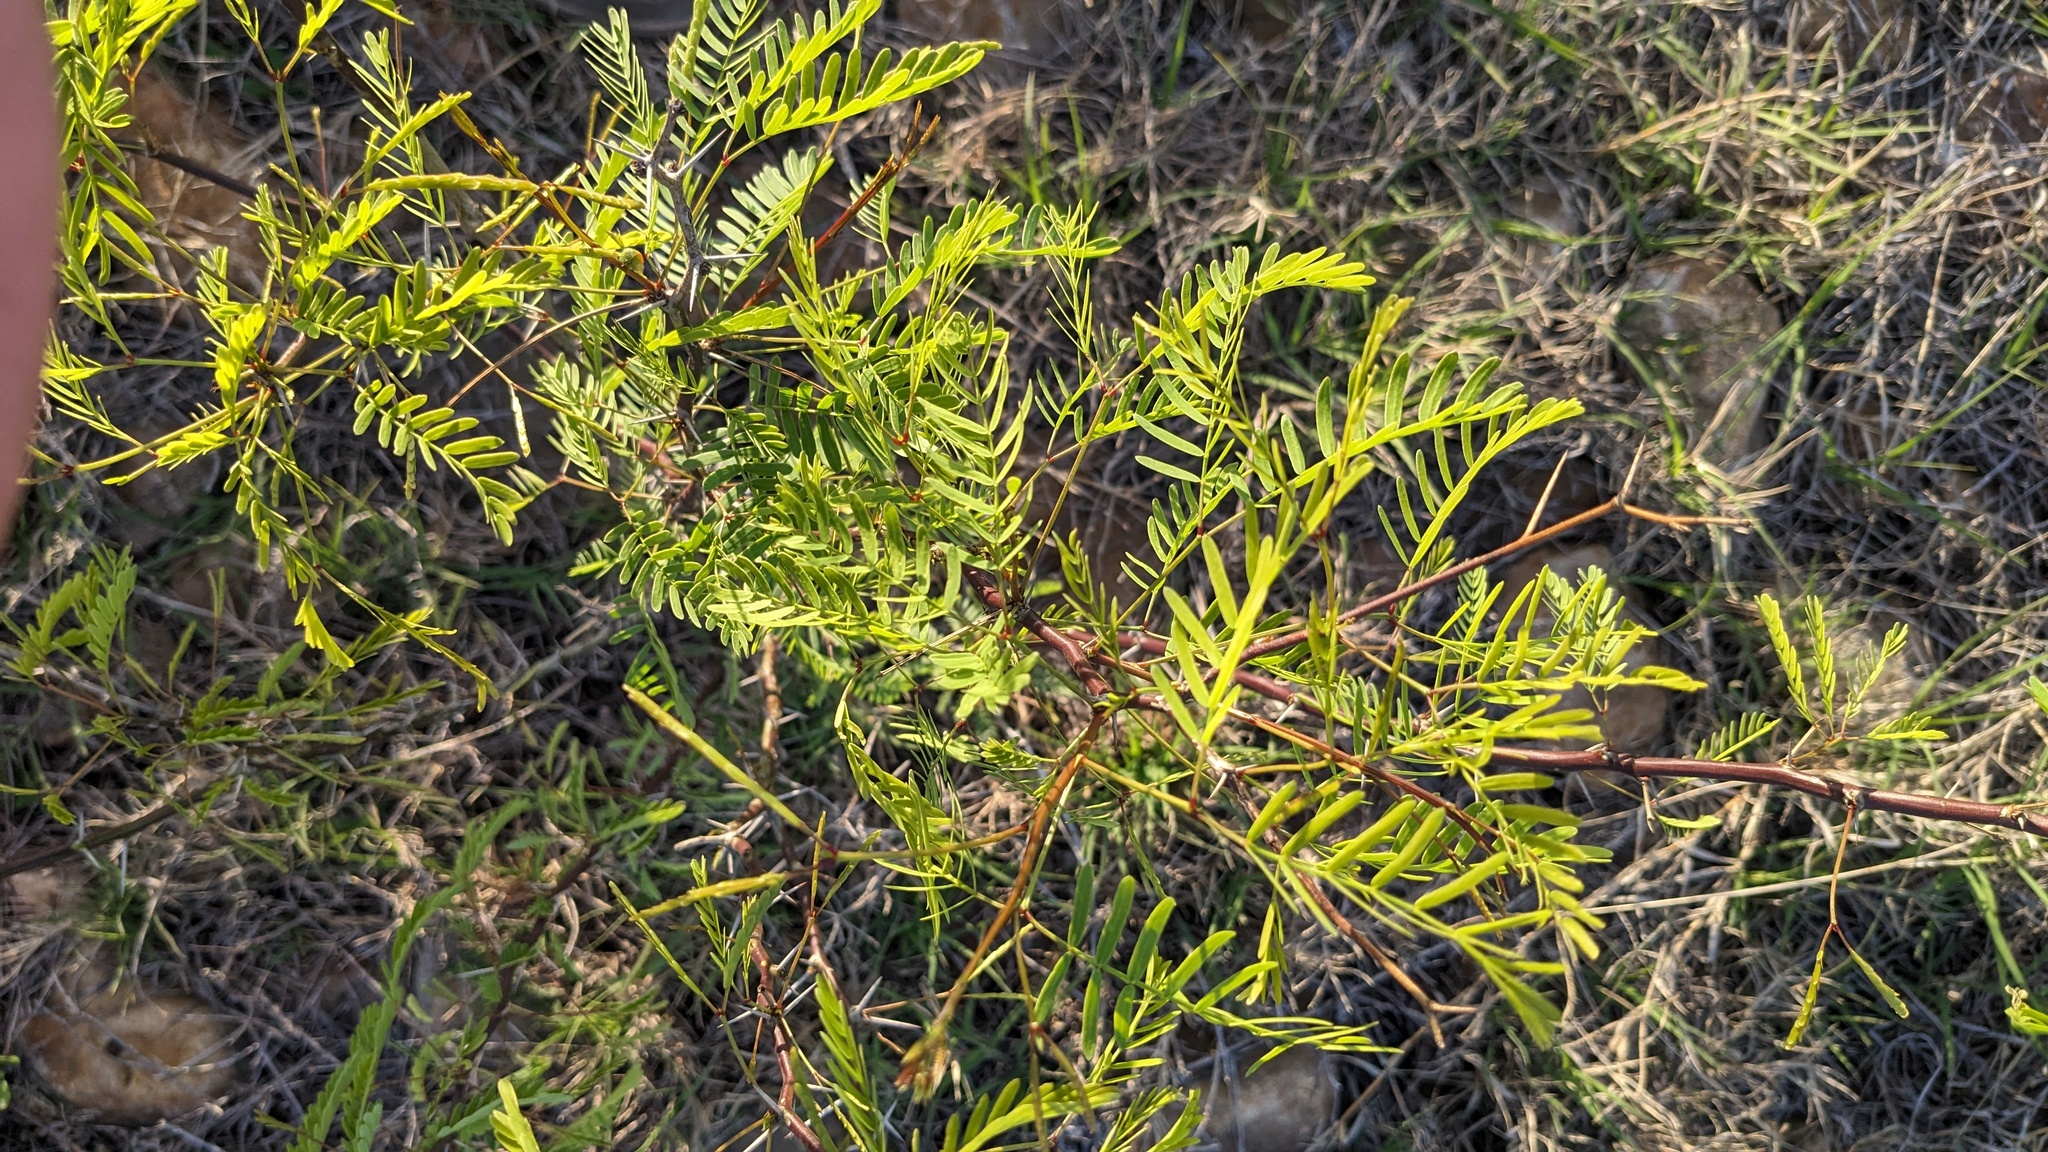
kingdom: Plantae
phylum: Tracheophyta
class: Magnoliopsida
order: Fabales
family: Fabaceae
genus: Prosopis
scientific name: Prosopis glandulosa
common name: Honey mesquite
